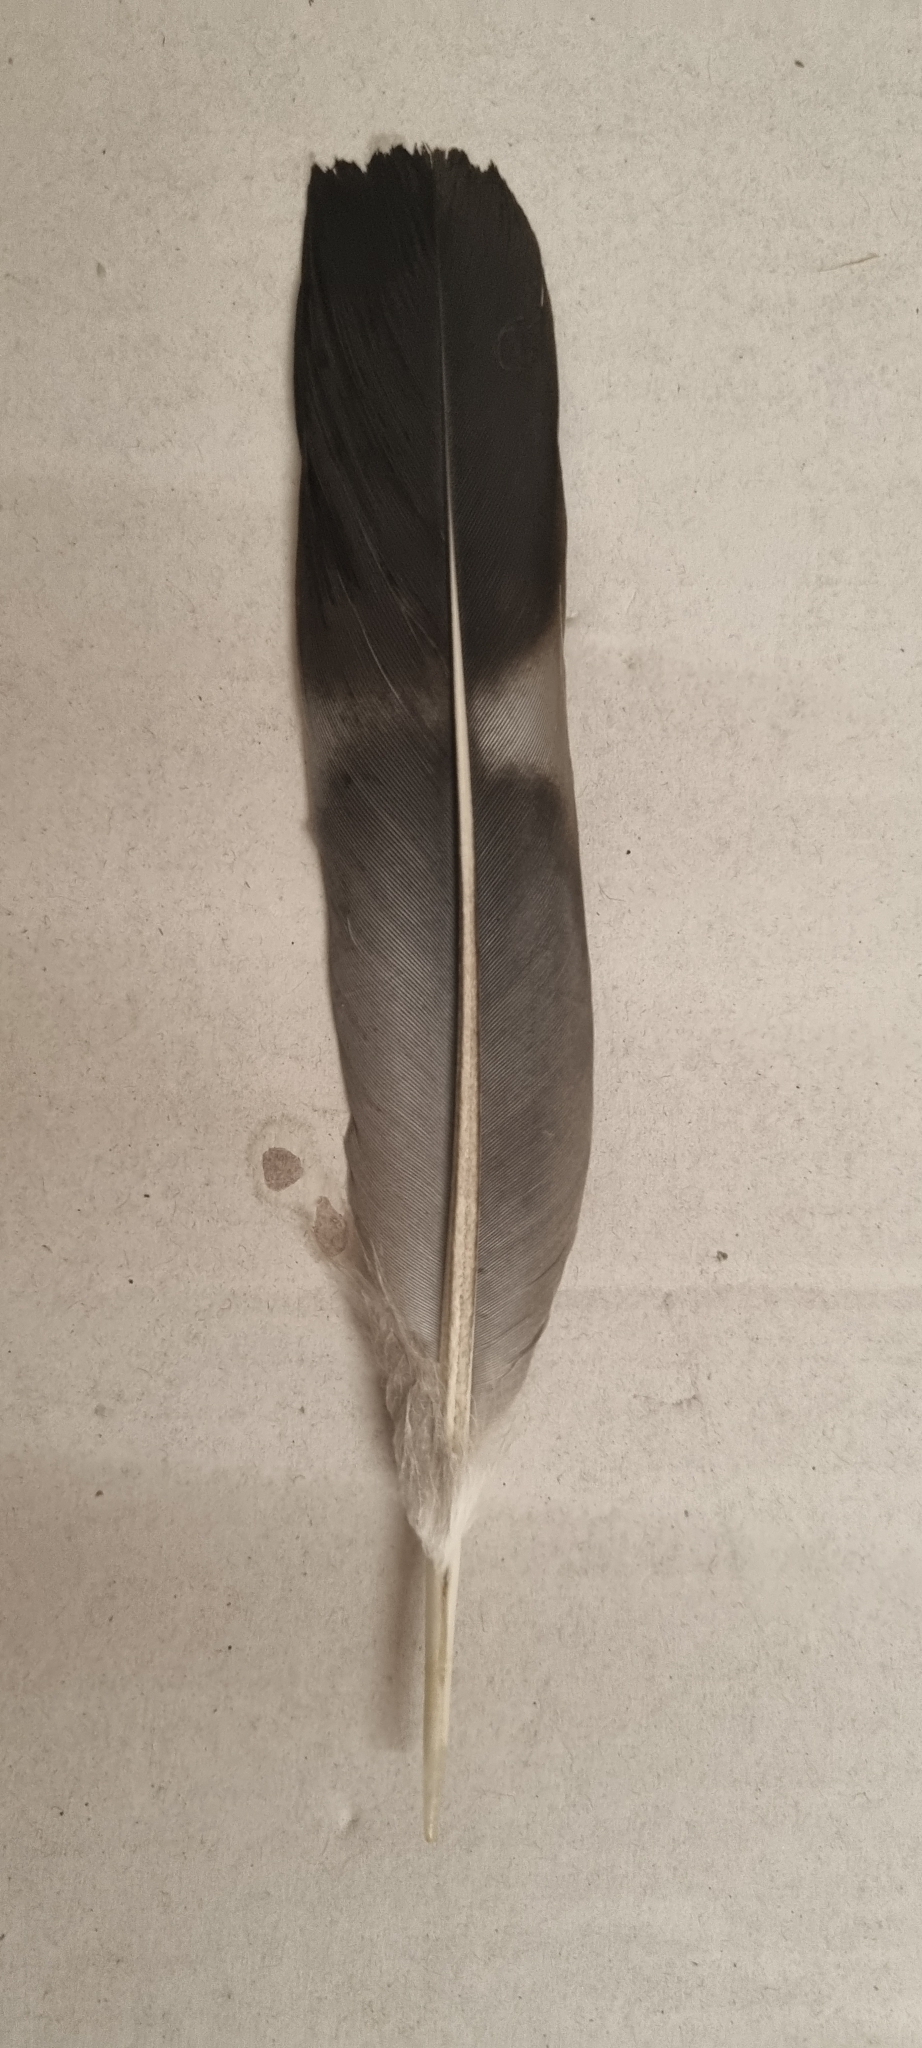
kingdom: Animalia
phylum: Chordata
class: Aves
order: Columbiformes
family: Columbidae
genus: Columba
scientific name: Columba palumbus
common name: Common wood pigeon
